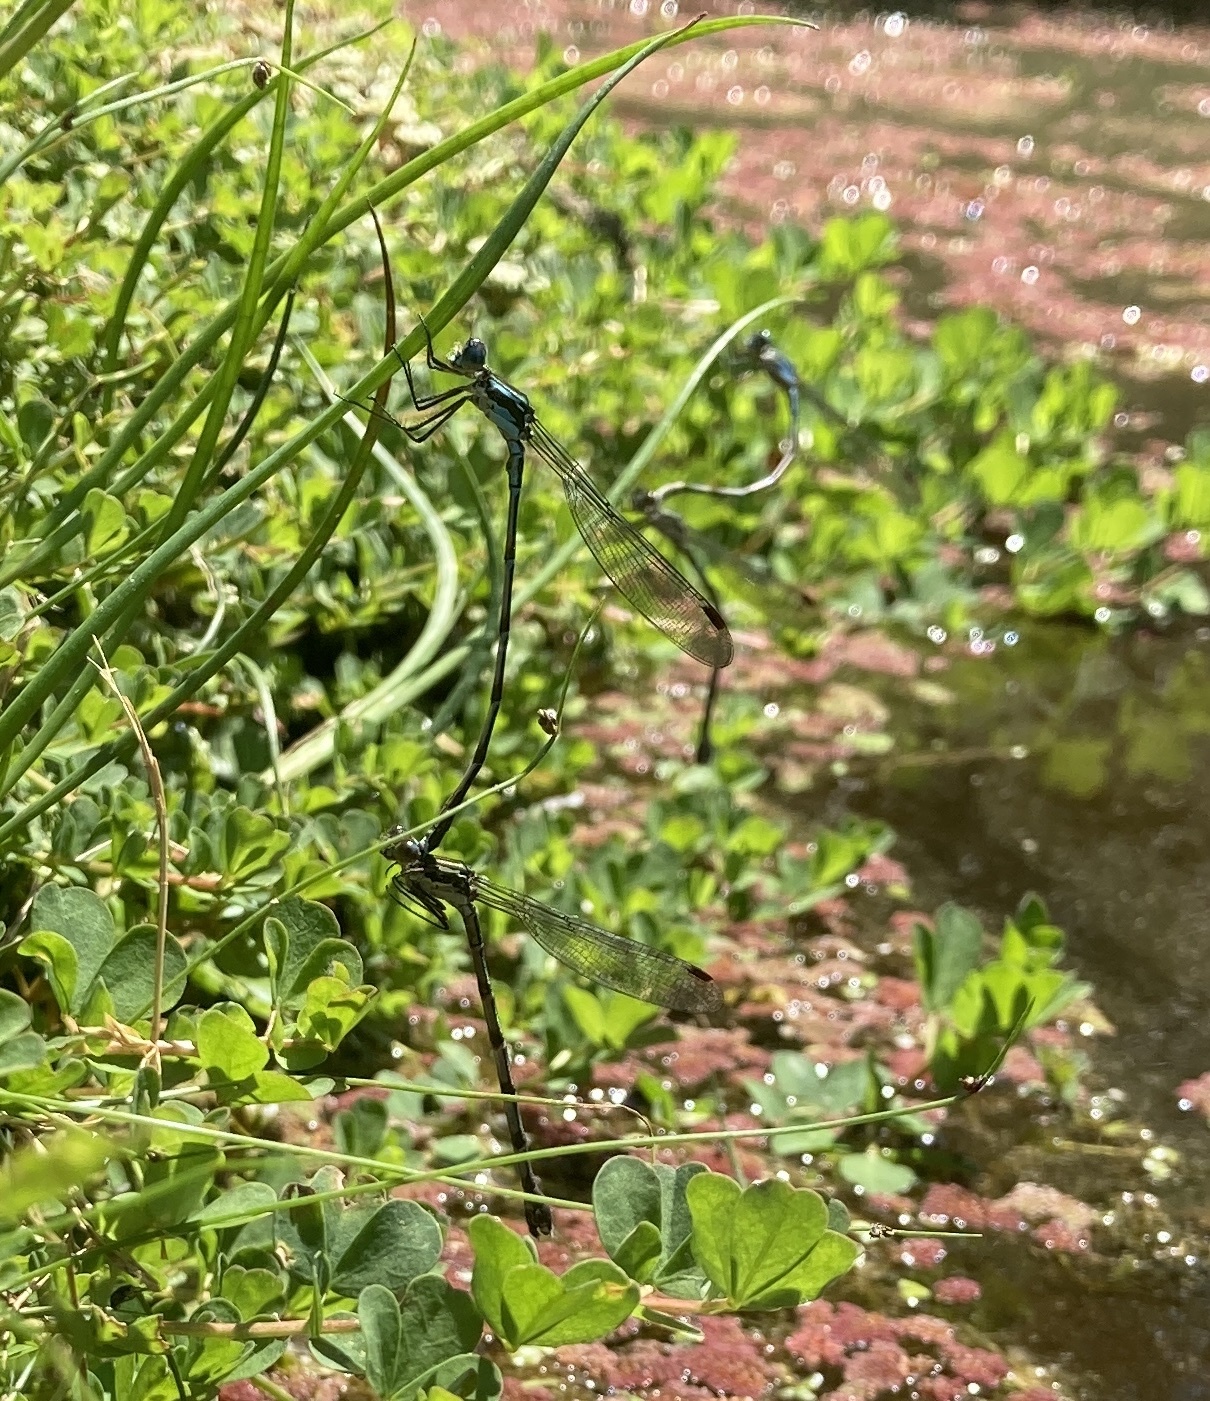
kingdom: Animalia
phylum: Arthropoda
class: Insecta
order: Odonata
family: Lestidae
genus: Austrolestes
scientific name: Austrolestes colensonis
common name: Blue damselfly
